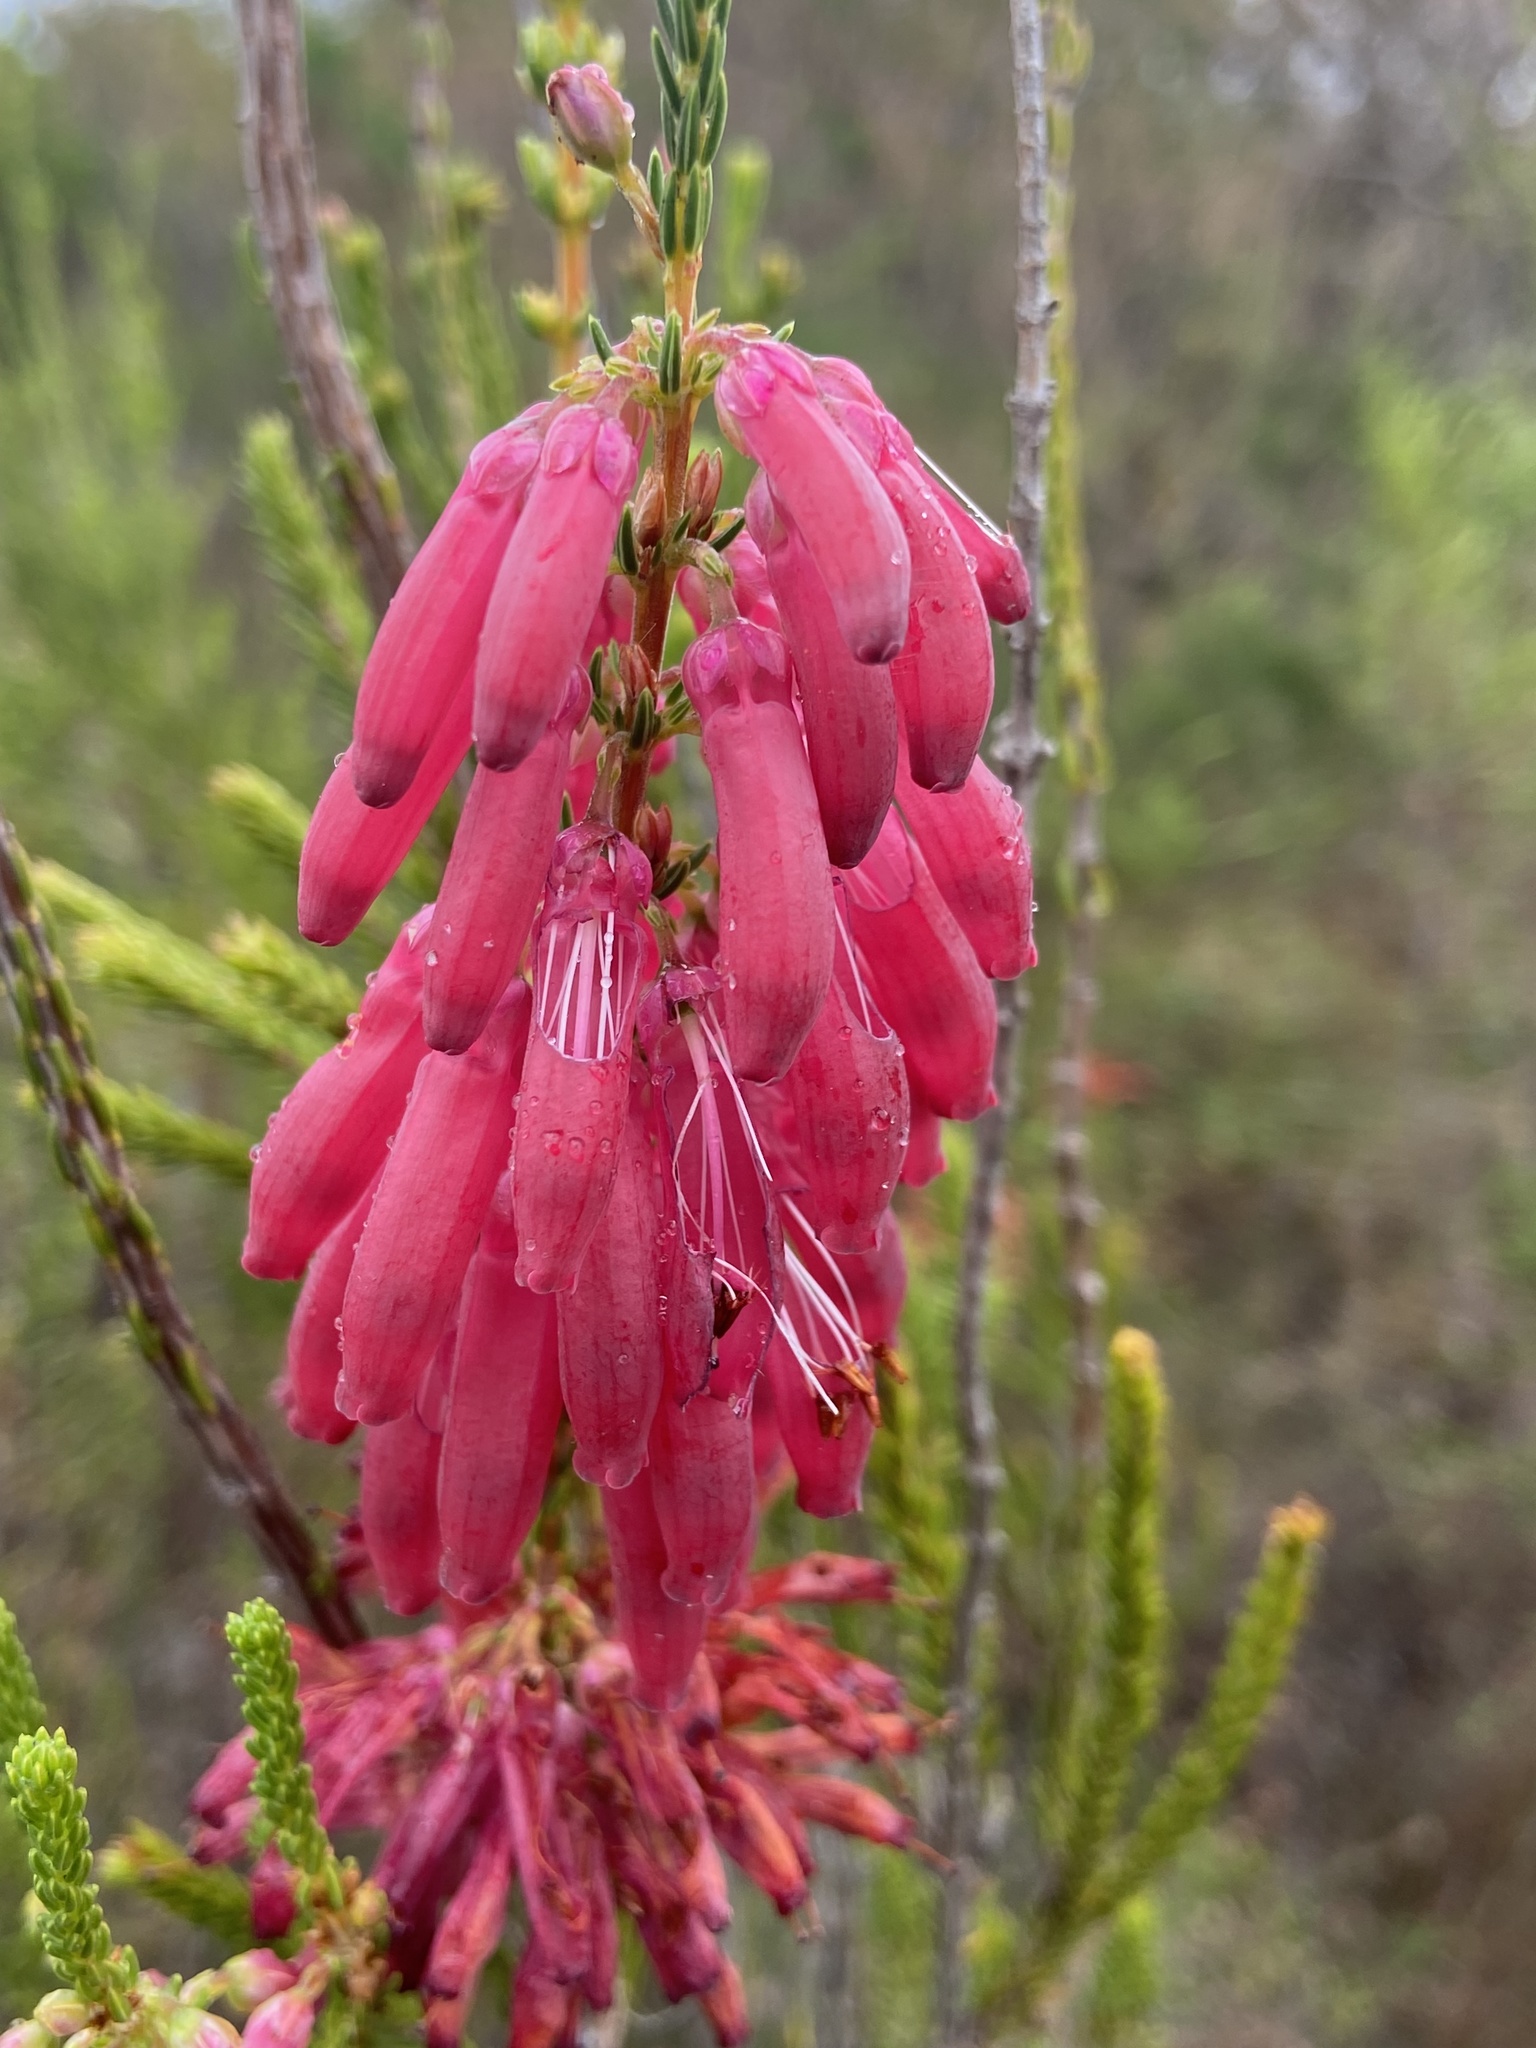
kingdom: Plantae
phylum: Tracheophyta
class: Magnoliopsida
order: Ericales
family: Ericaceae
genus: Erica
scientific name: Erica mammosa
